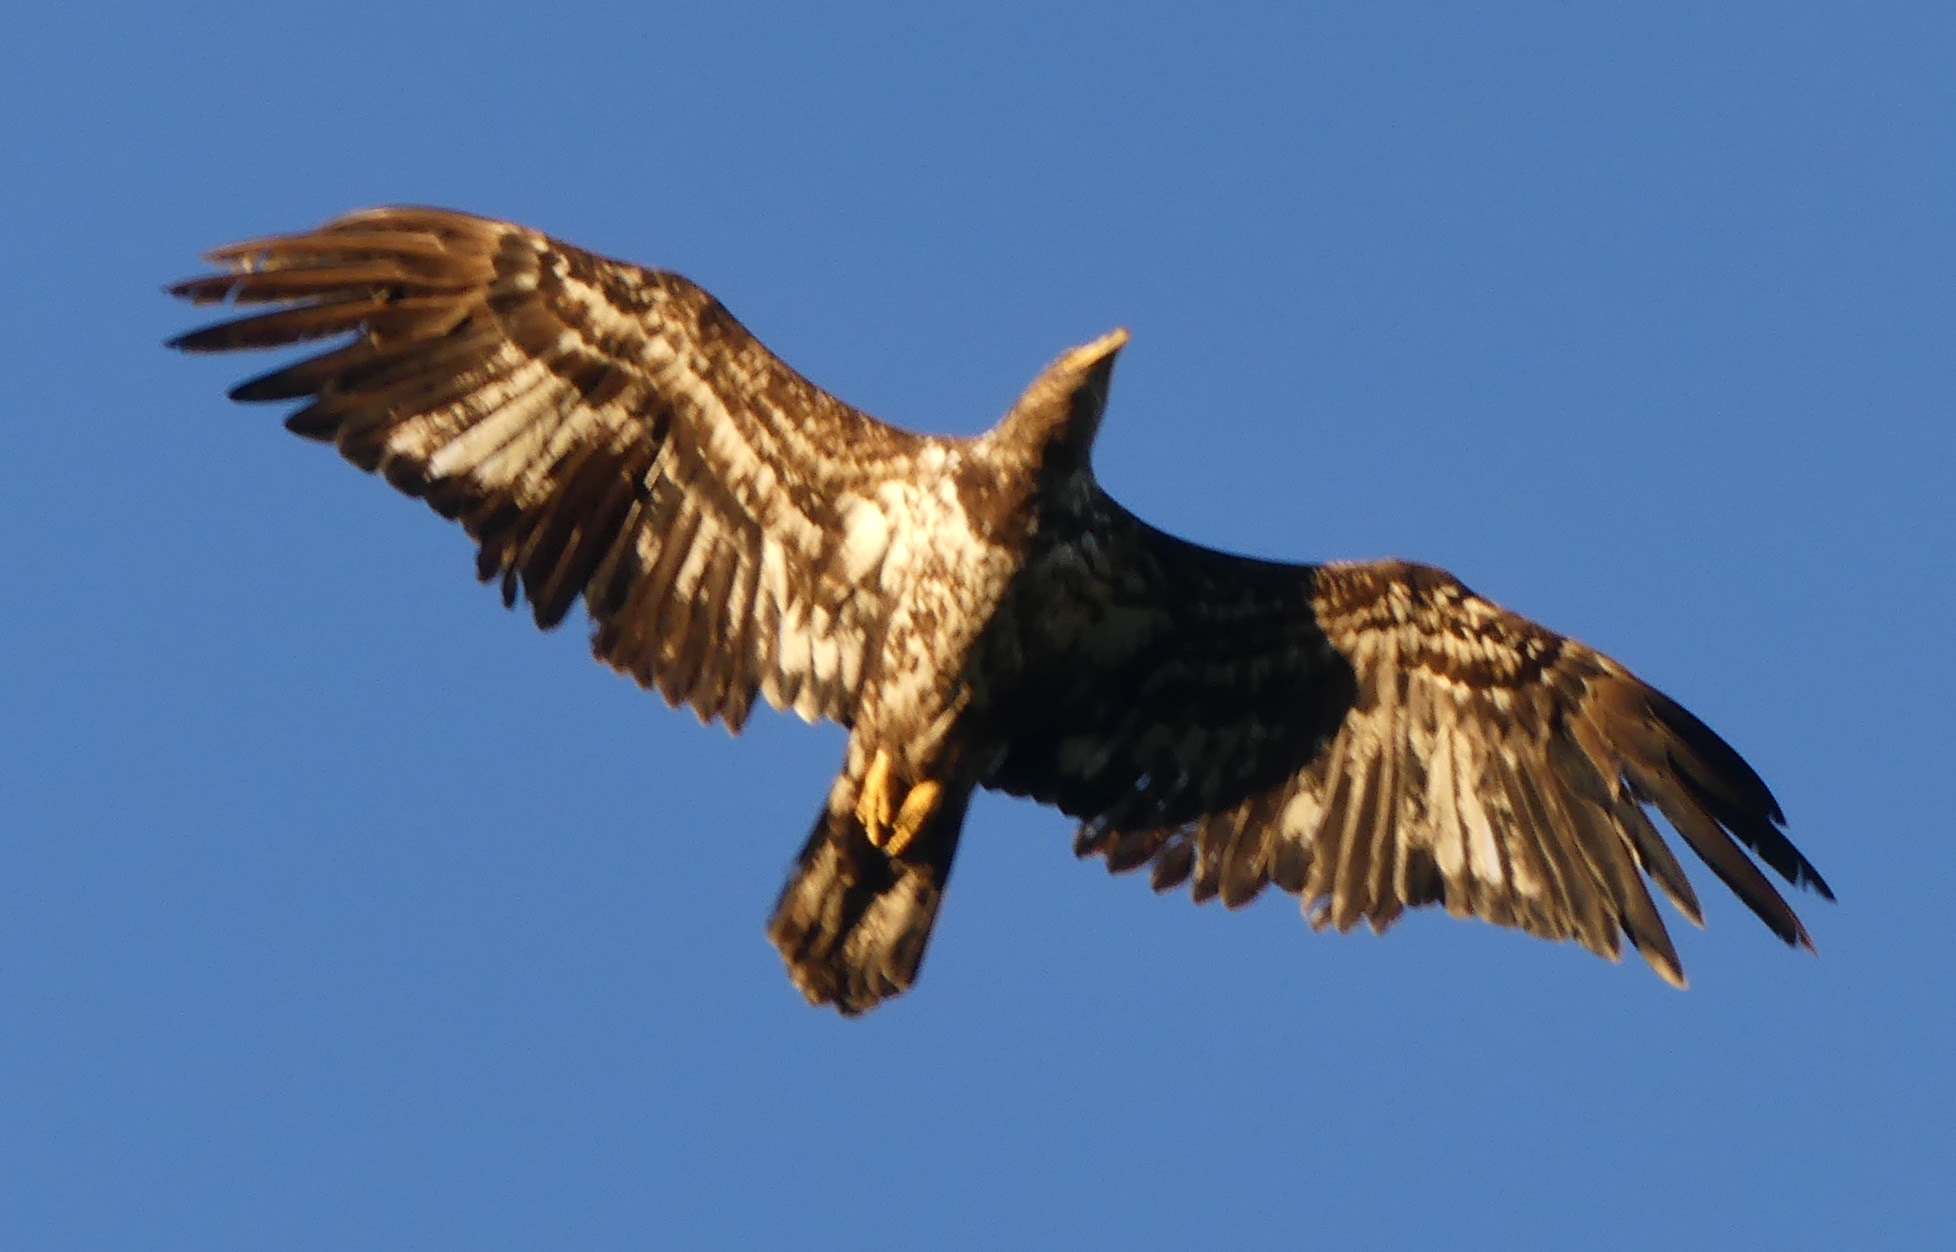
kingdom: Animalia
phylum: Chordata
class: Aves
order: Accipitriformes
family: Accipitridae
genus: Haliaeetus
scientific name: Haliaeetus leucocephalus
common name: Bald eagle
